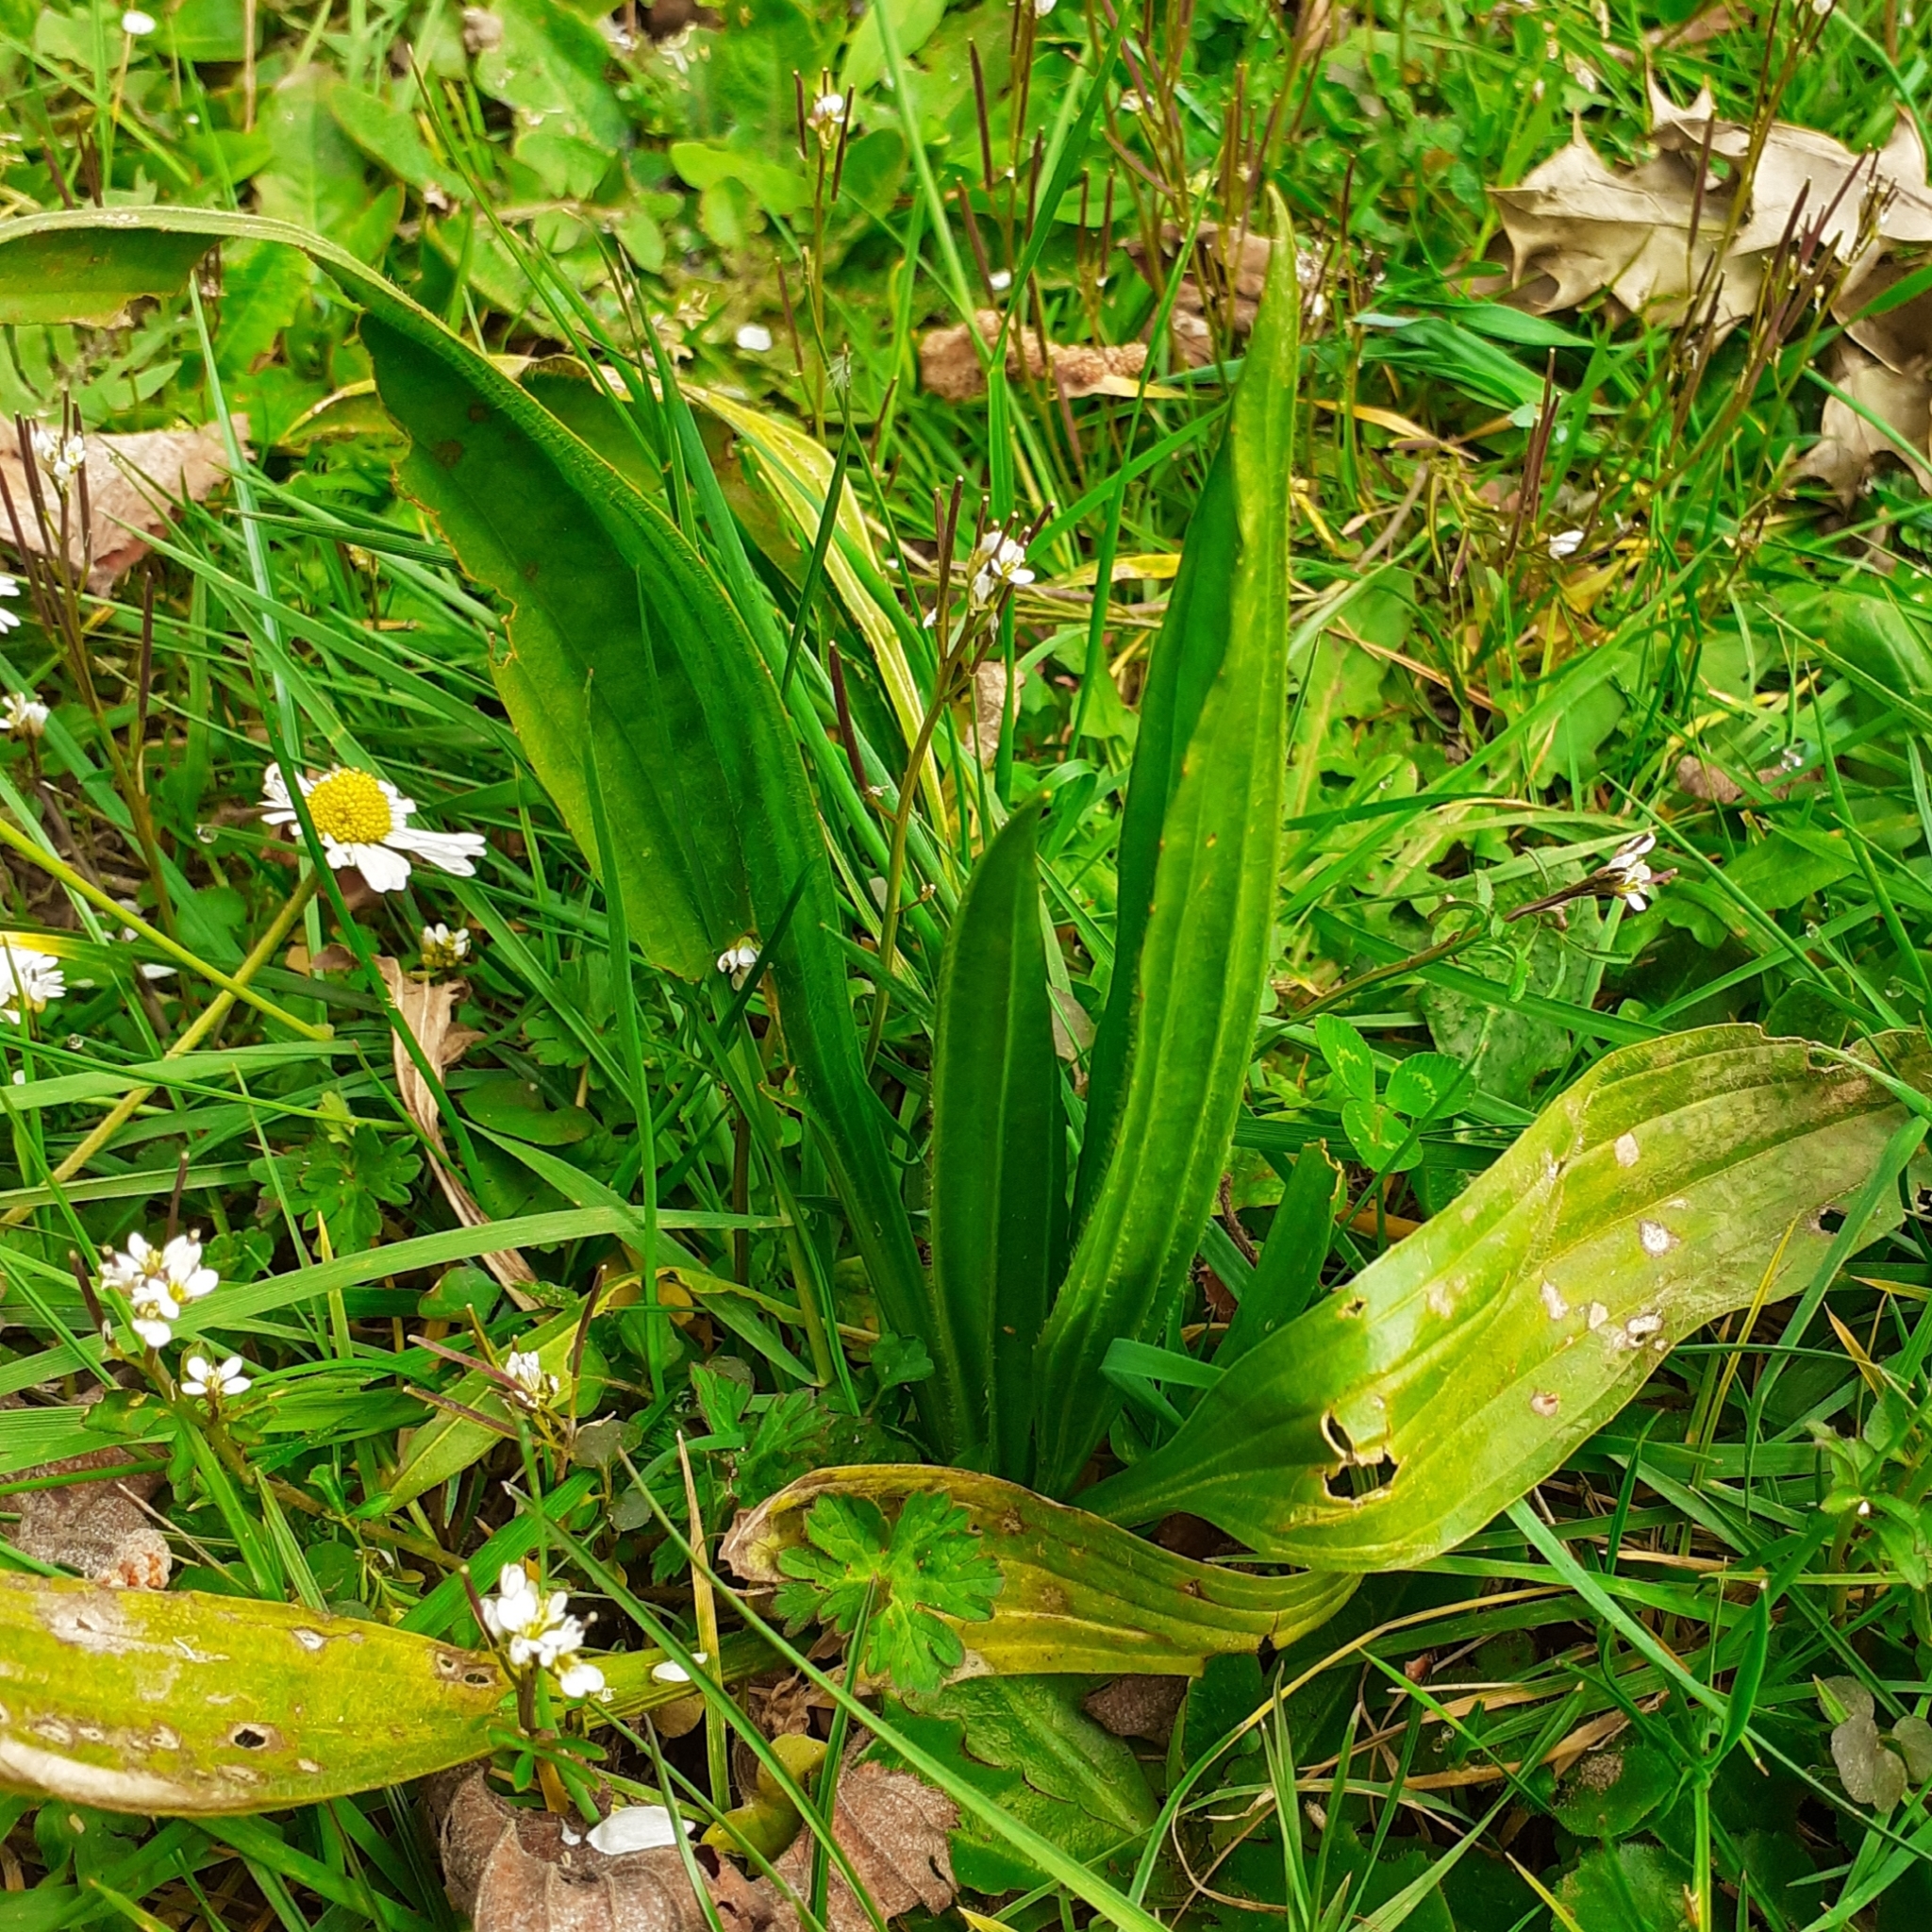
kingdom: Plantae
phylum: Tracheophyta
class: Magnoliopsida
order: Lamiales
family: Plantaginaceae
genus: Plantago
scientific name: Plantago lanceolata
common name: Ribwort plantain
